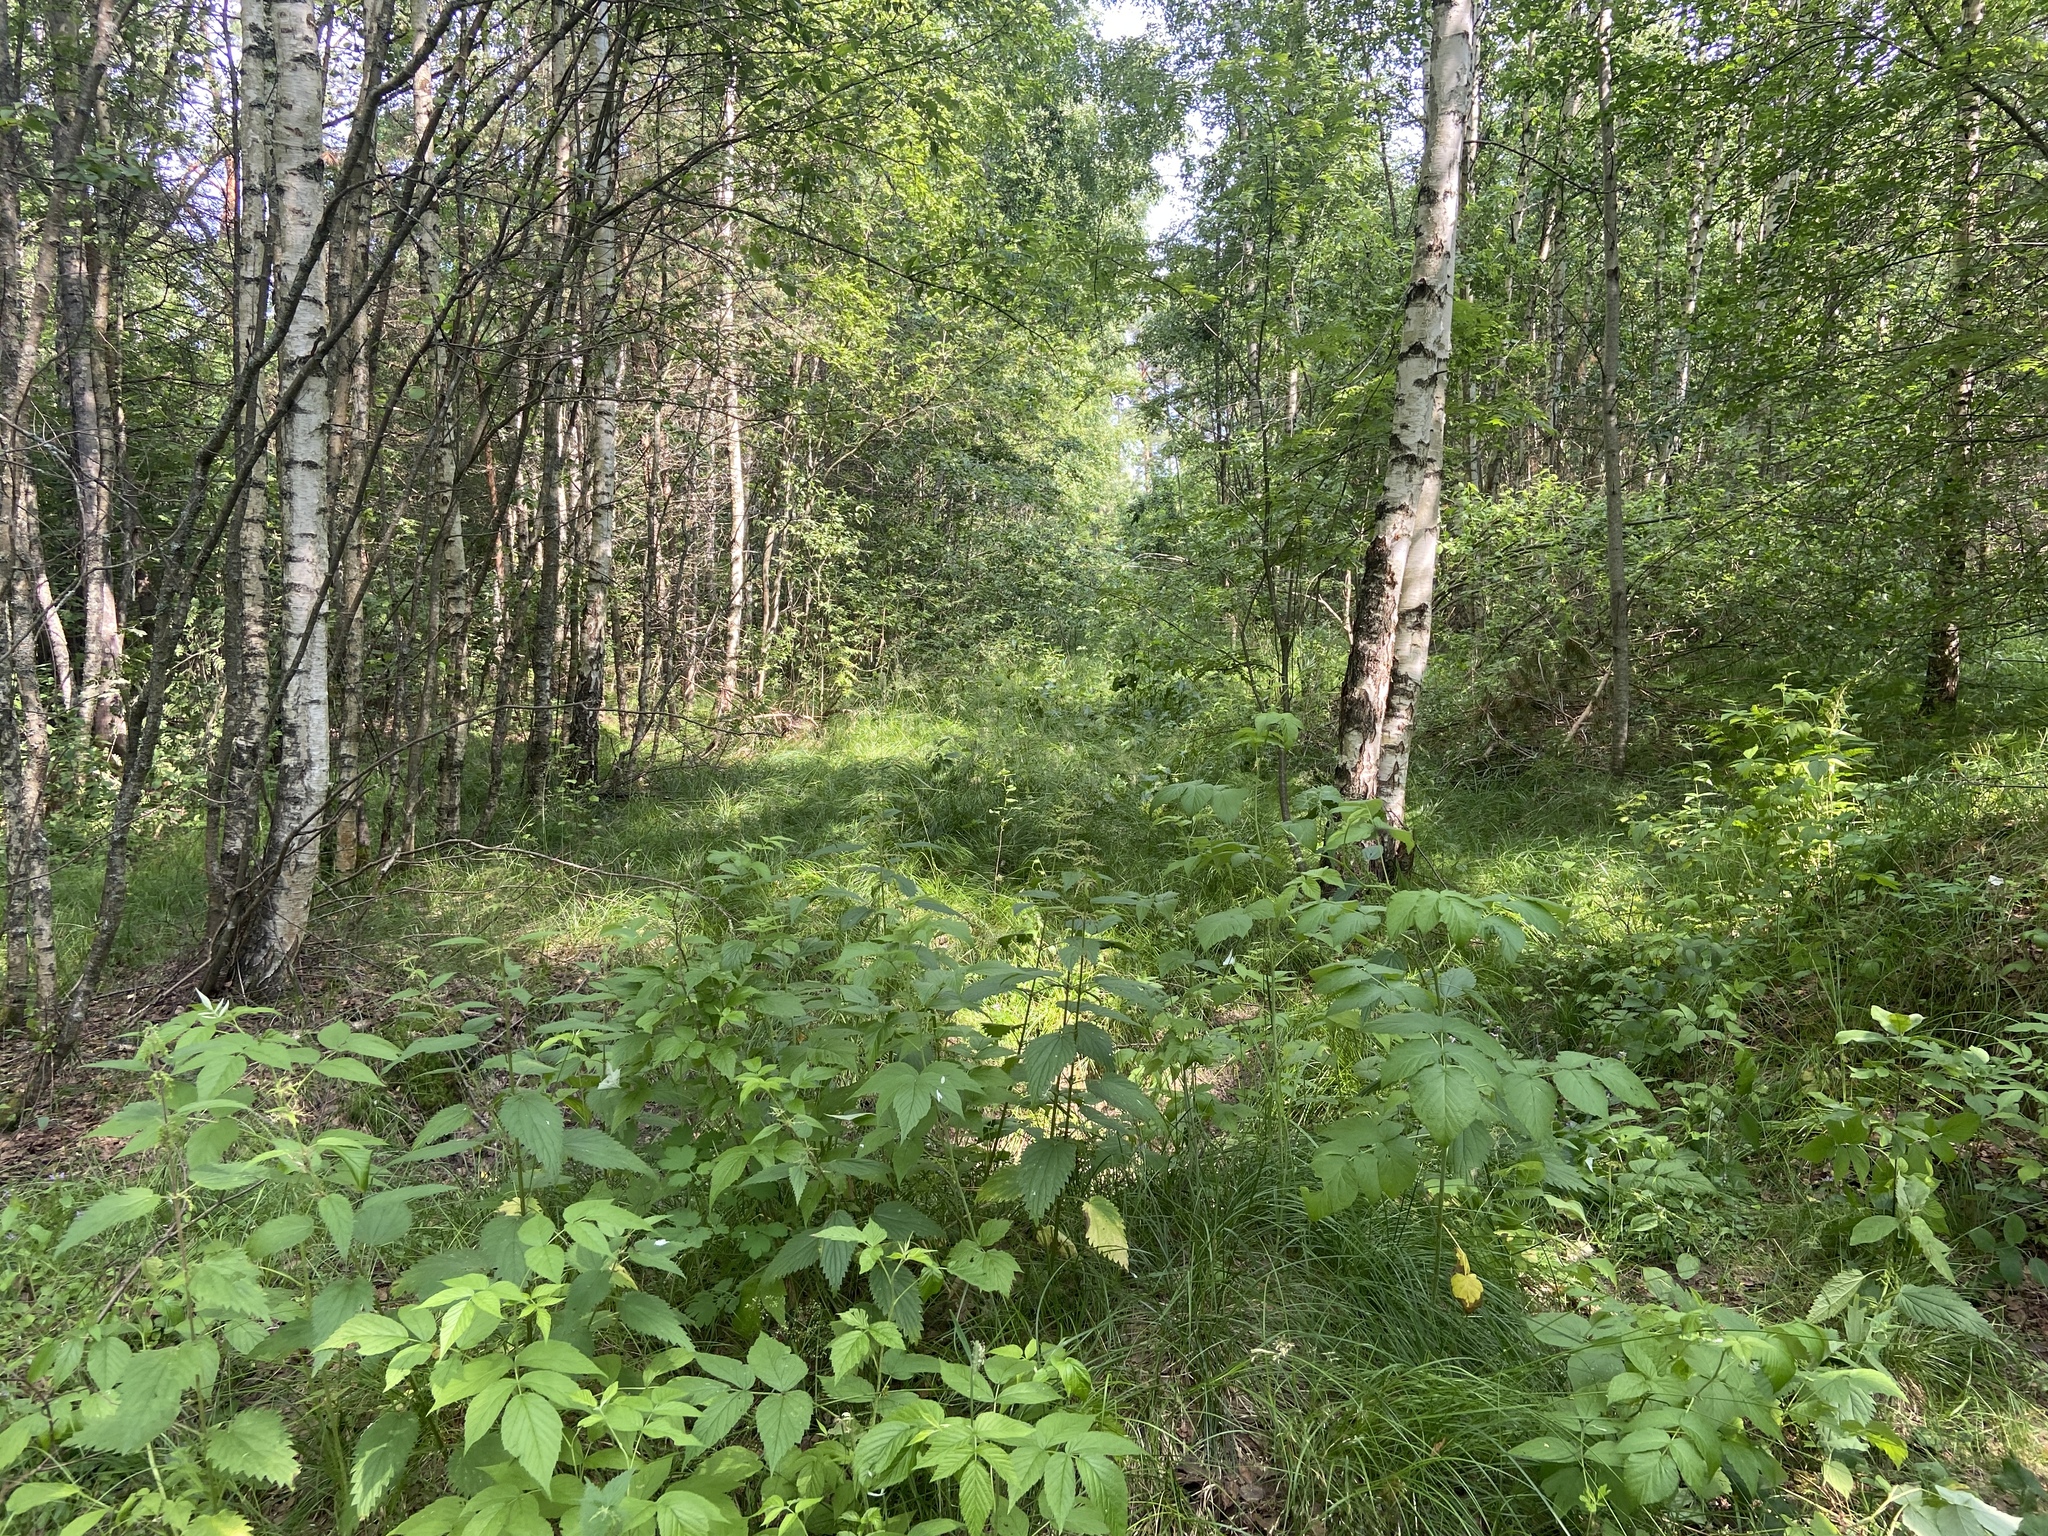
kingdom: Plantae
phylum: Tracheophyta
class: Magnoliopsida
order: Rosales
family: Rosaceae
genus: Rubus
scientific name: Rubus idaeus
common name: Raspberry
